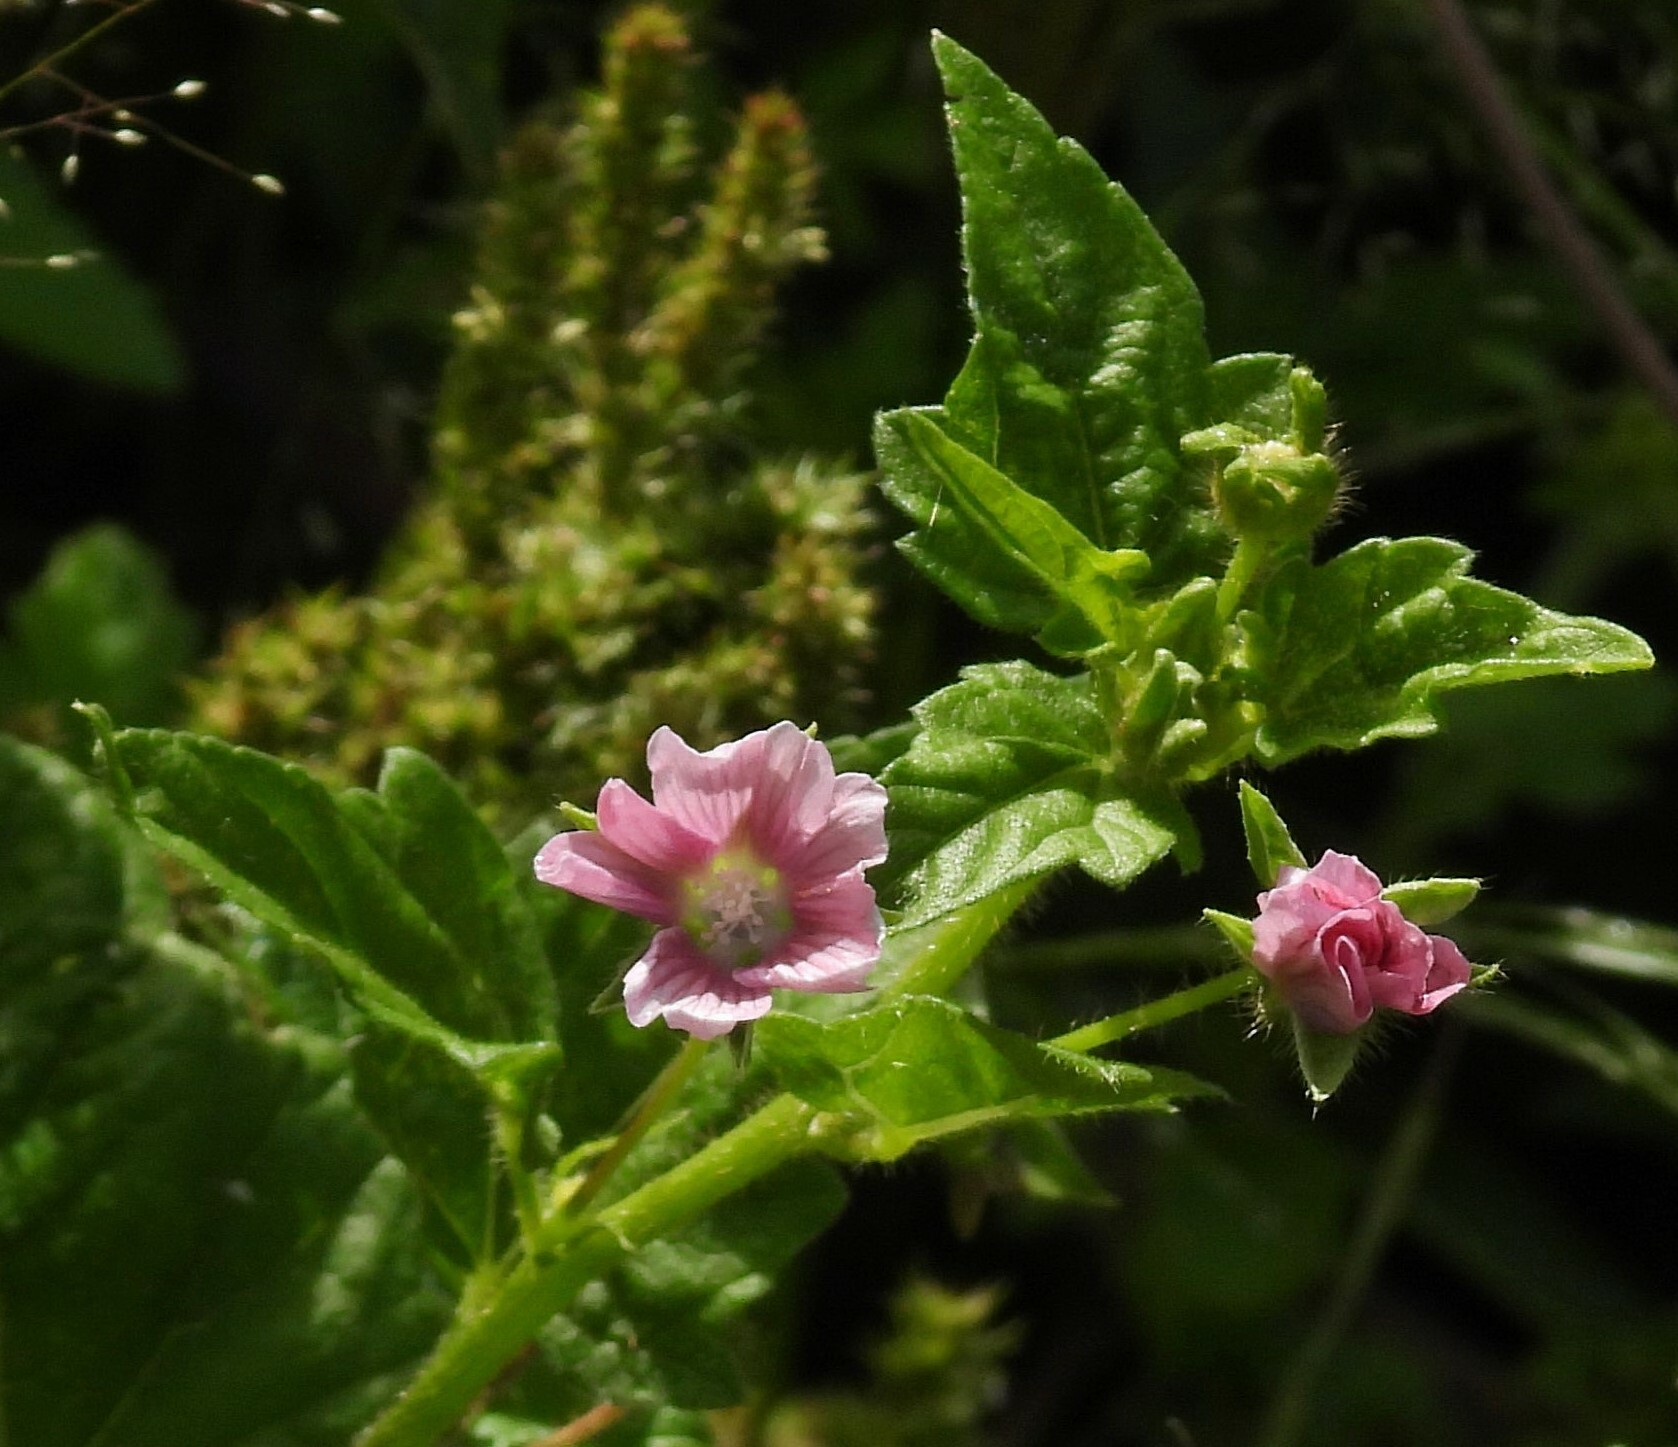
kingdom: Plantae
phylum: Tracheophyta
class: Magnoliopsida
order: Malvales
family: Malvaceae
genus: Anoda
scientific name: Anoda cristata
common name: Spurred anoda
